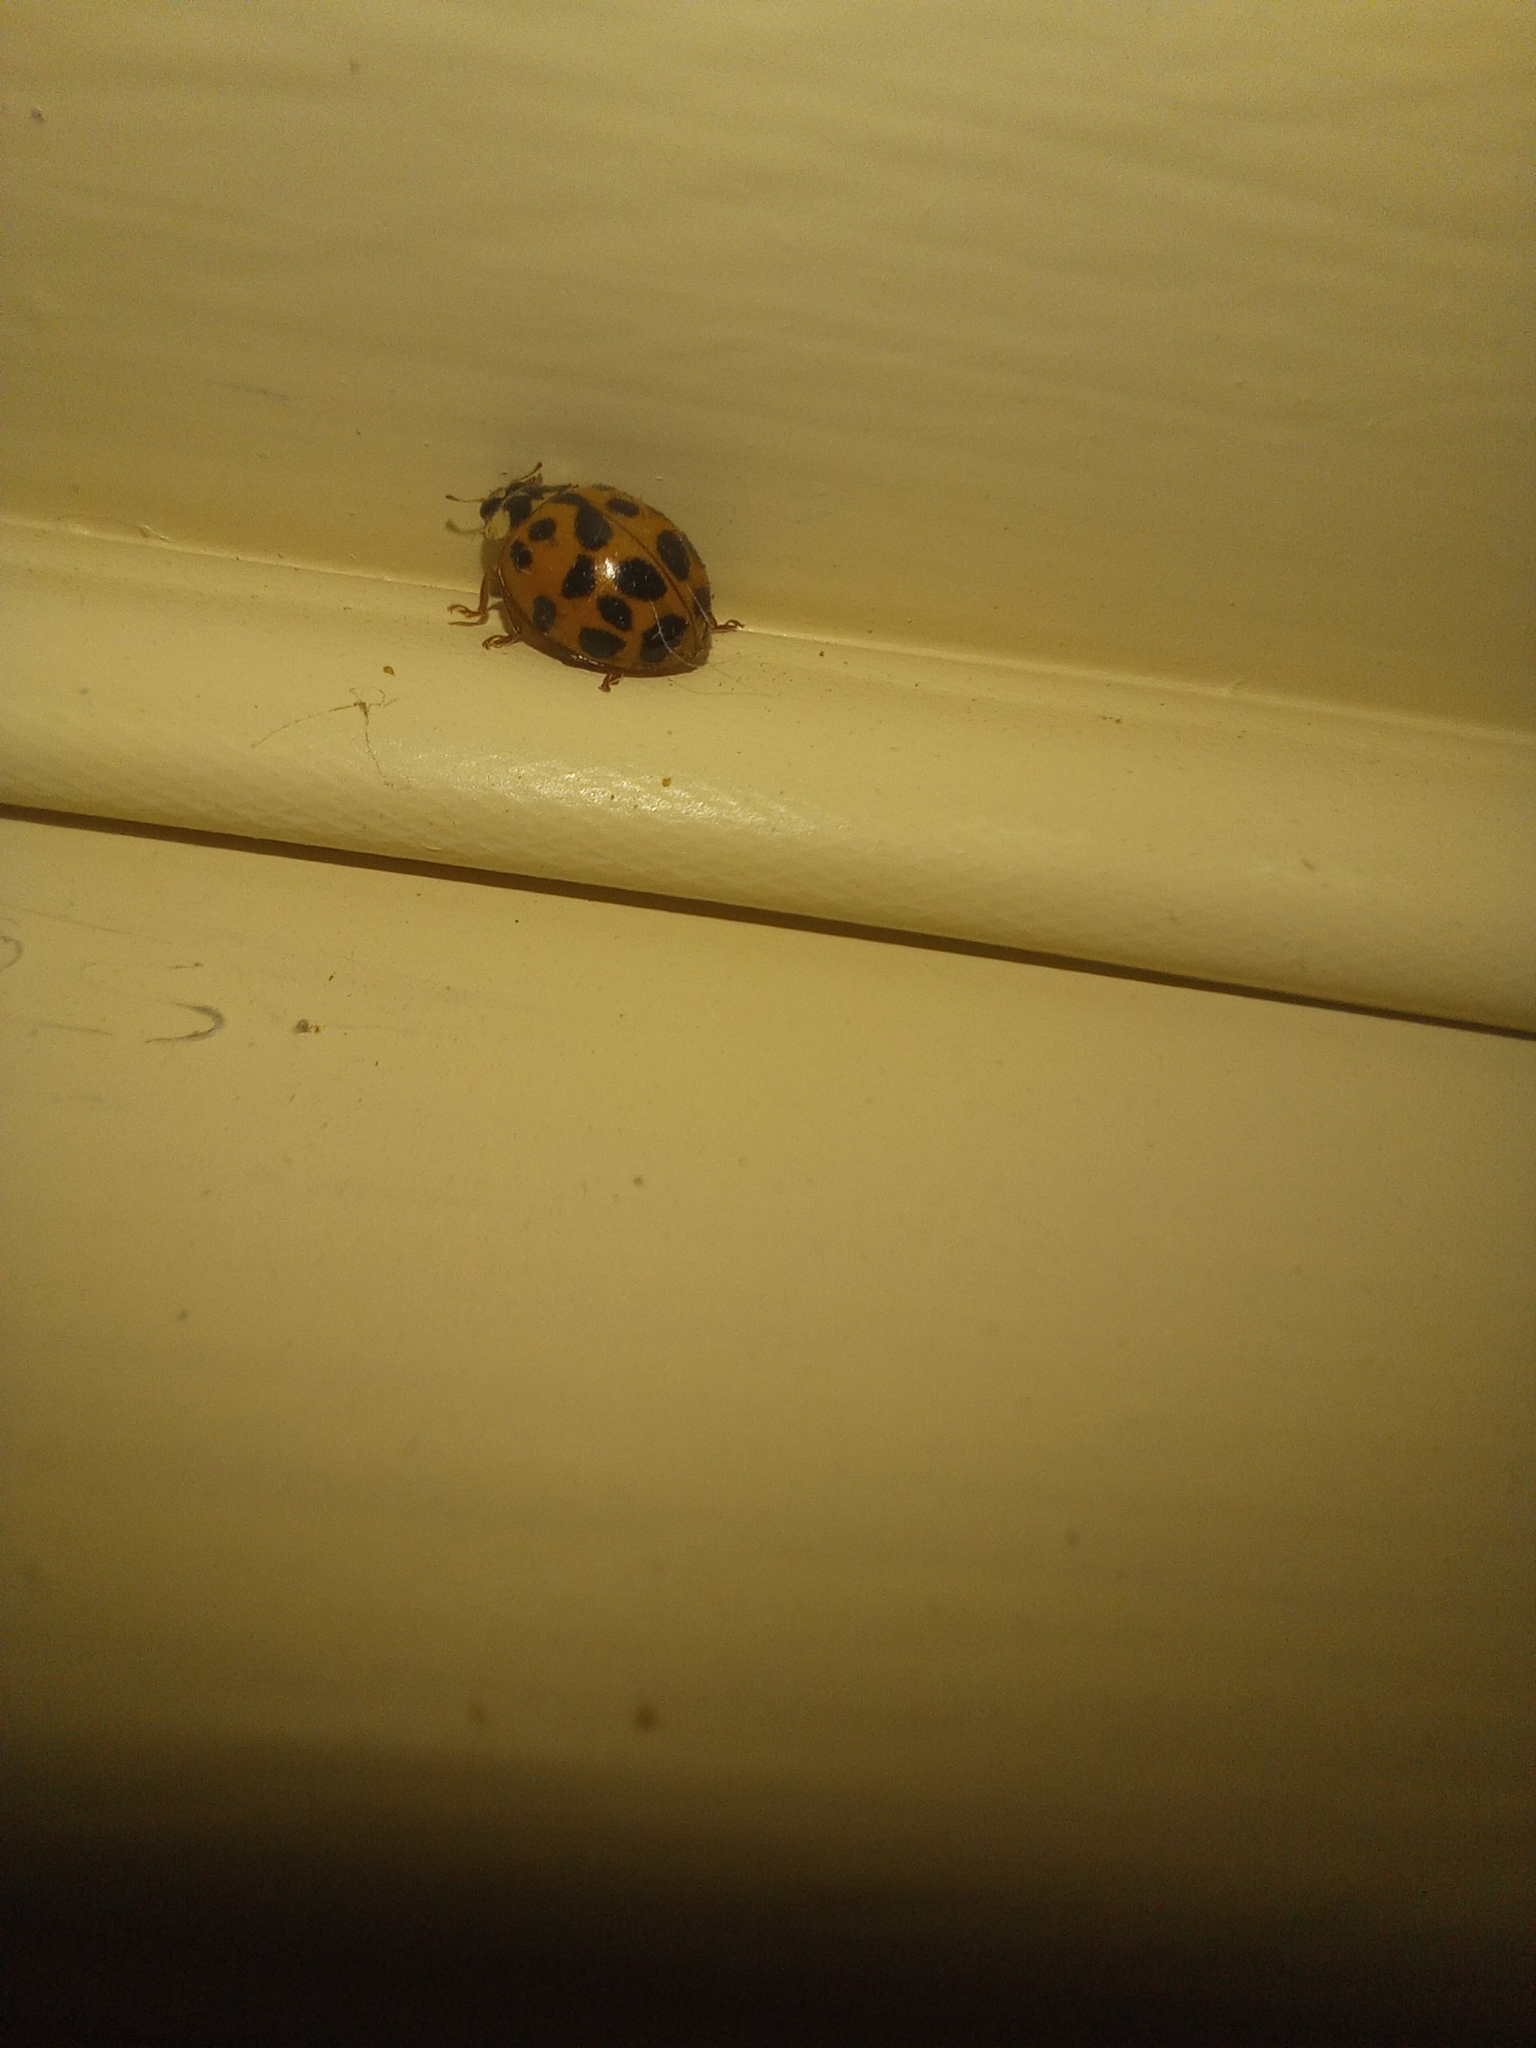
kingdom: Animalia
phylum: Arthropoda
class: Insecta
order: Coleoptera
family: Coccinellidae
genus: Harmonia
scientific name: Harmonia axyridis
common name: Harlequin ladybird
